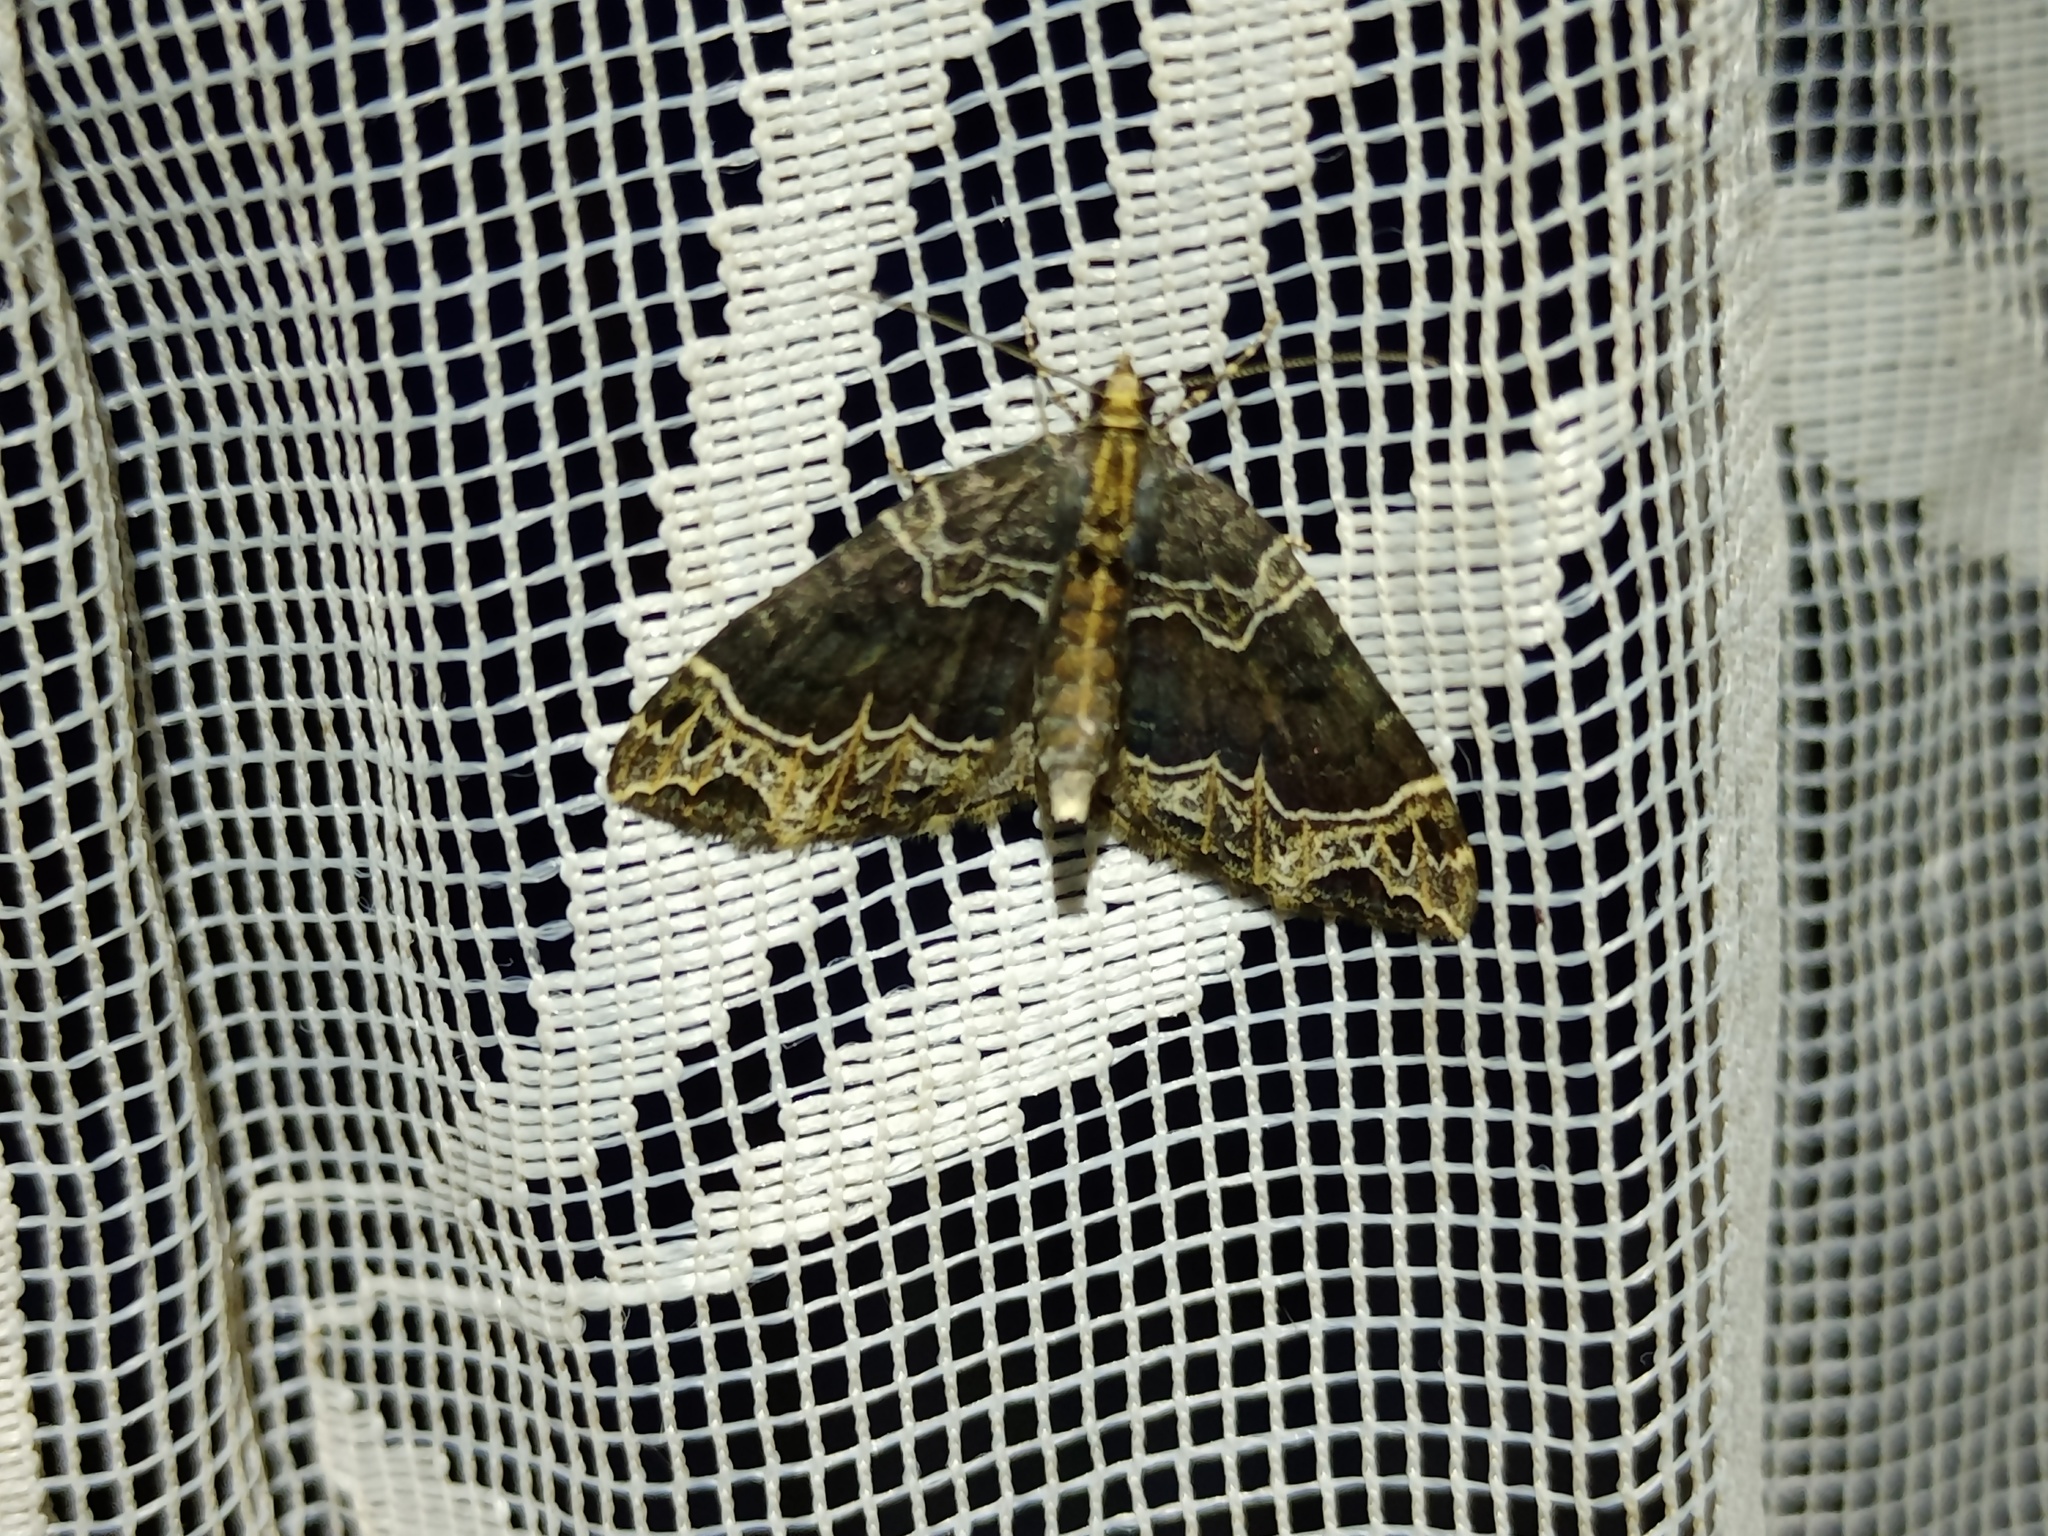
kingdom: Animalia
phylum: Arthropoda
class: Insecta
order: Lepidoptera
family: Geometridae
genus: Ecliptopera
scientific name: Ecliptopera silaceata
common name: Small phoenix
